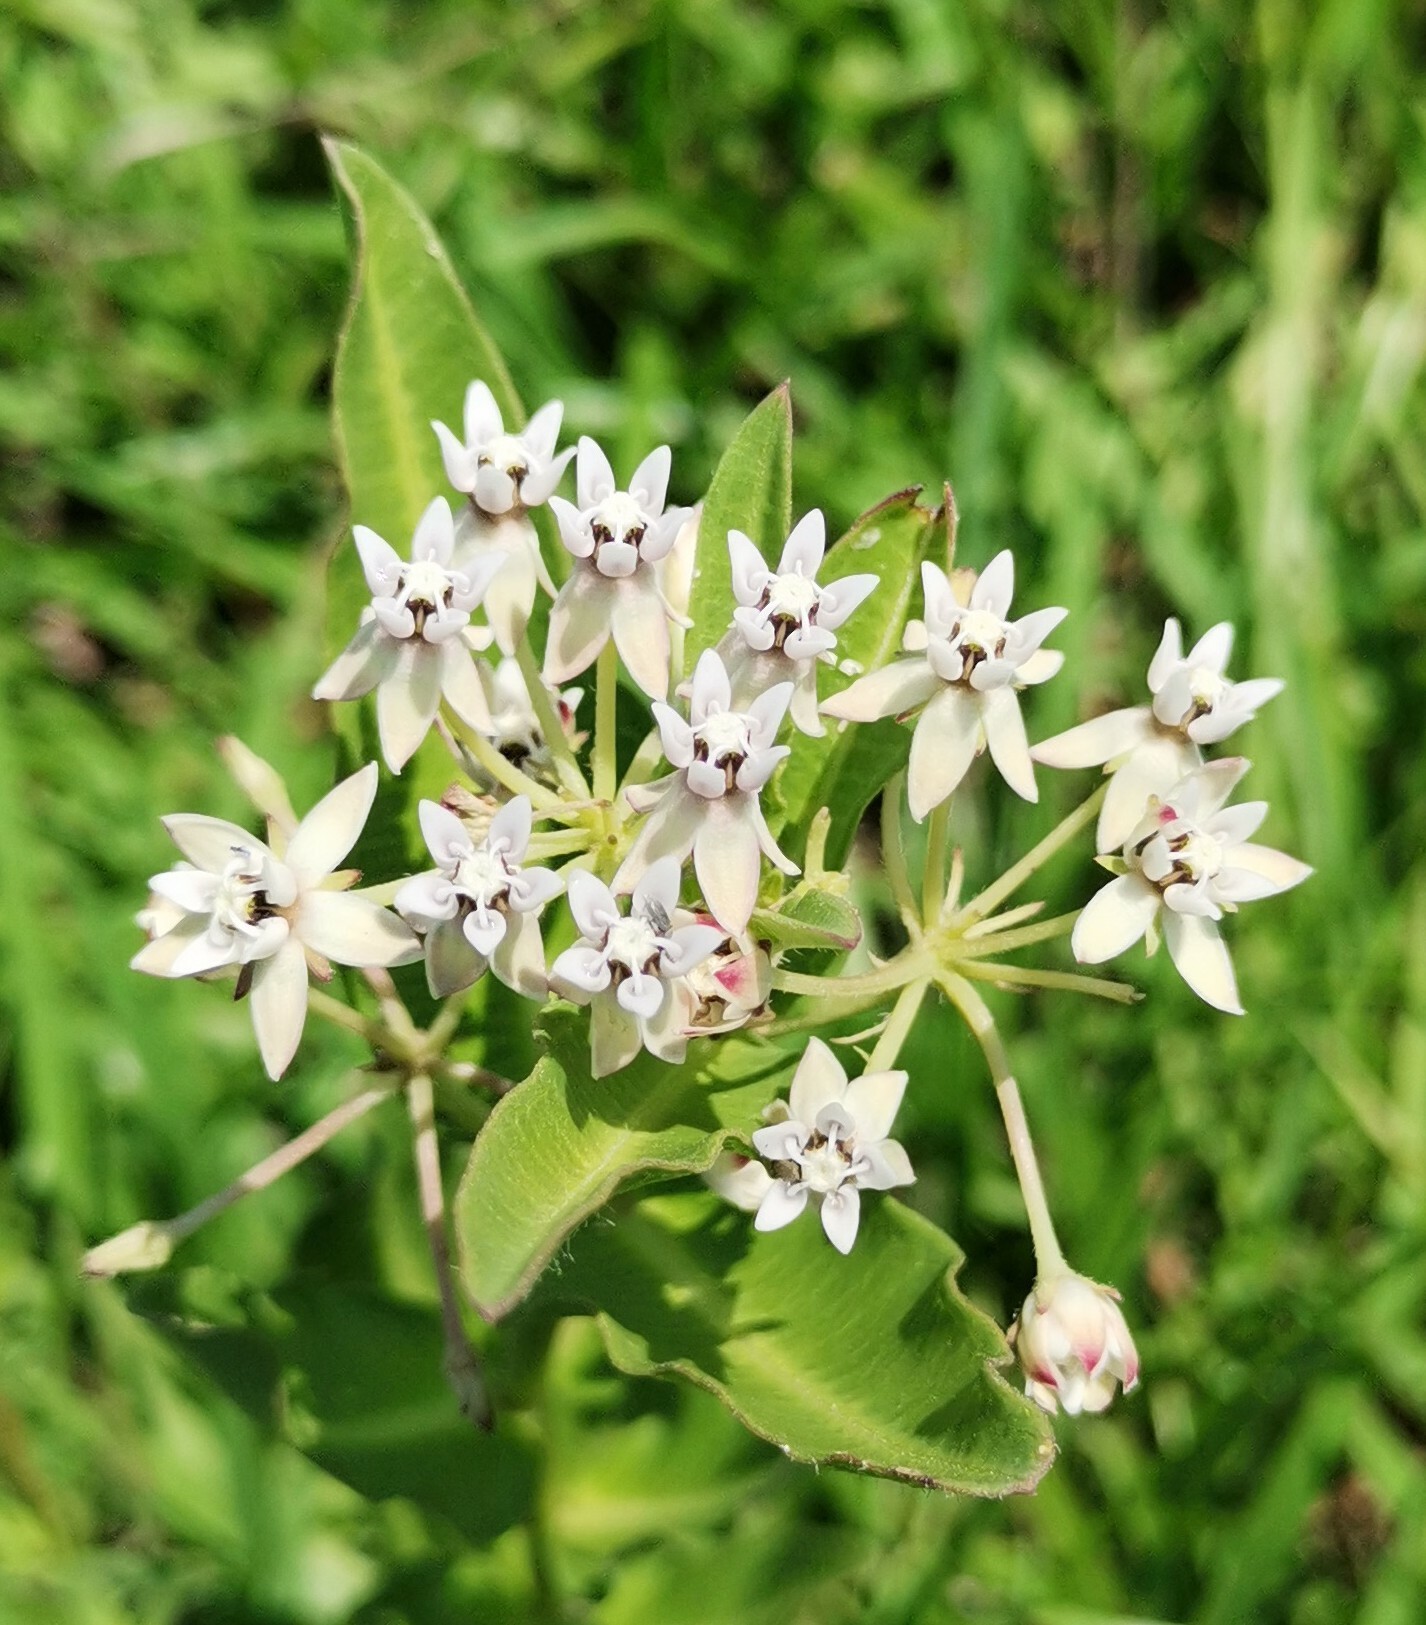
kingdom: Plantae
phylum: Tracheophyta
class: Magnoliopsida
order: Gentianales
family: Apocynaceae
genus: Asclepias
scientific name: Asclepias pratensis
